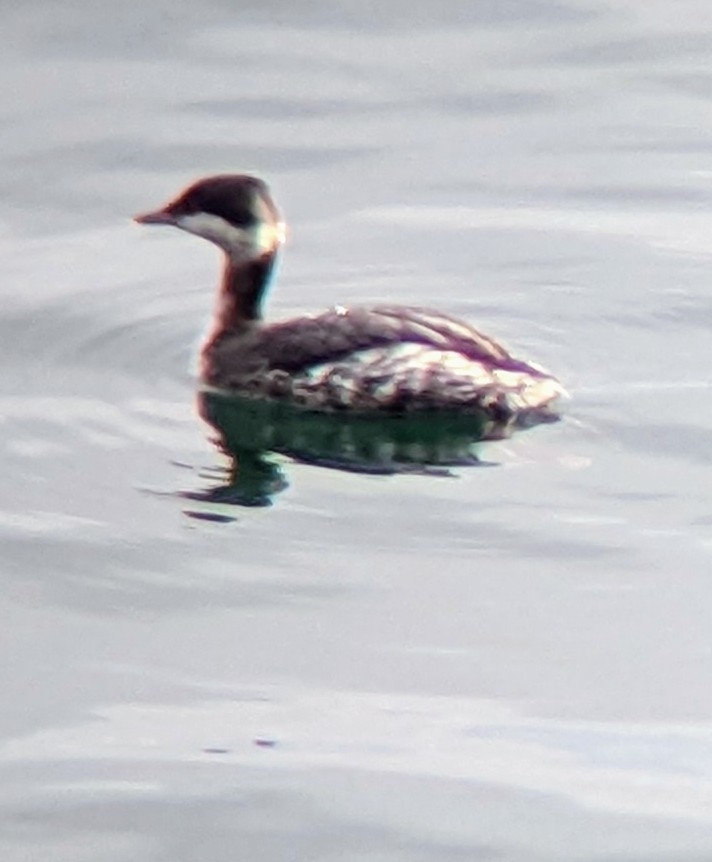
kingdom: Animalia
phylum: Chordata
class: Aves
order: Podicipediformes
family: Podicipedidae
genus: Podiceps
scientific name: Podiceps auritus
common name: Horned grebe
